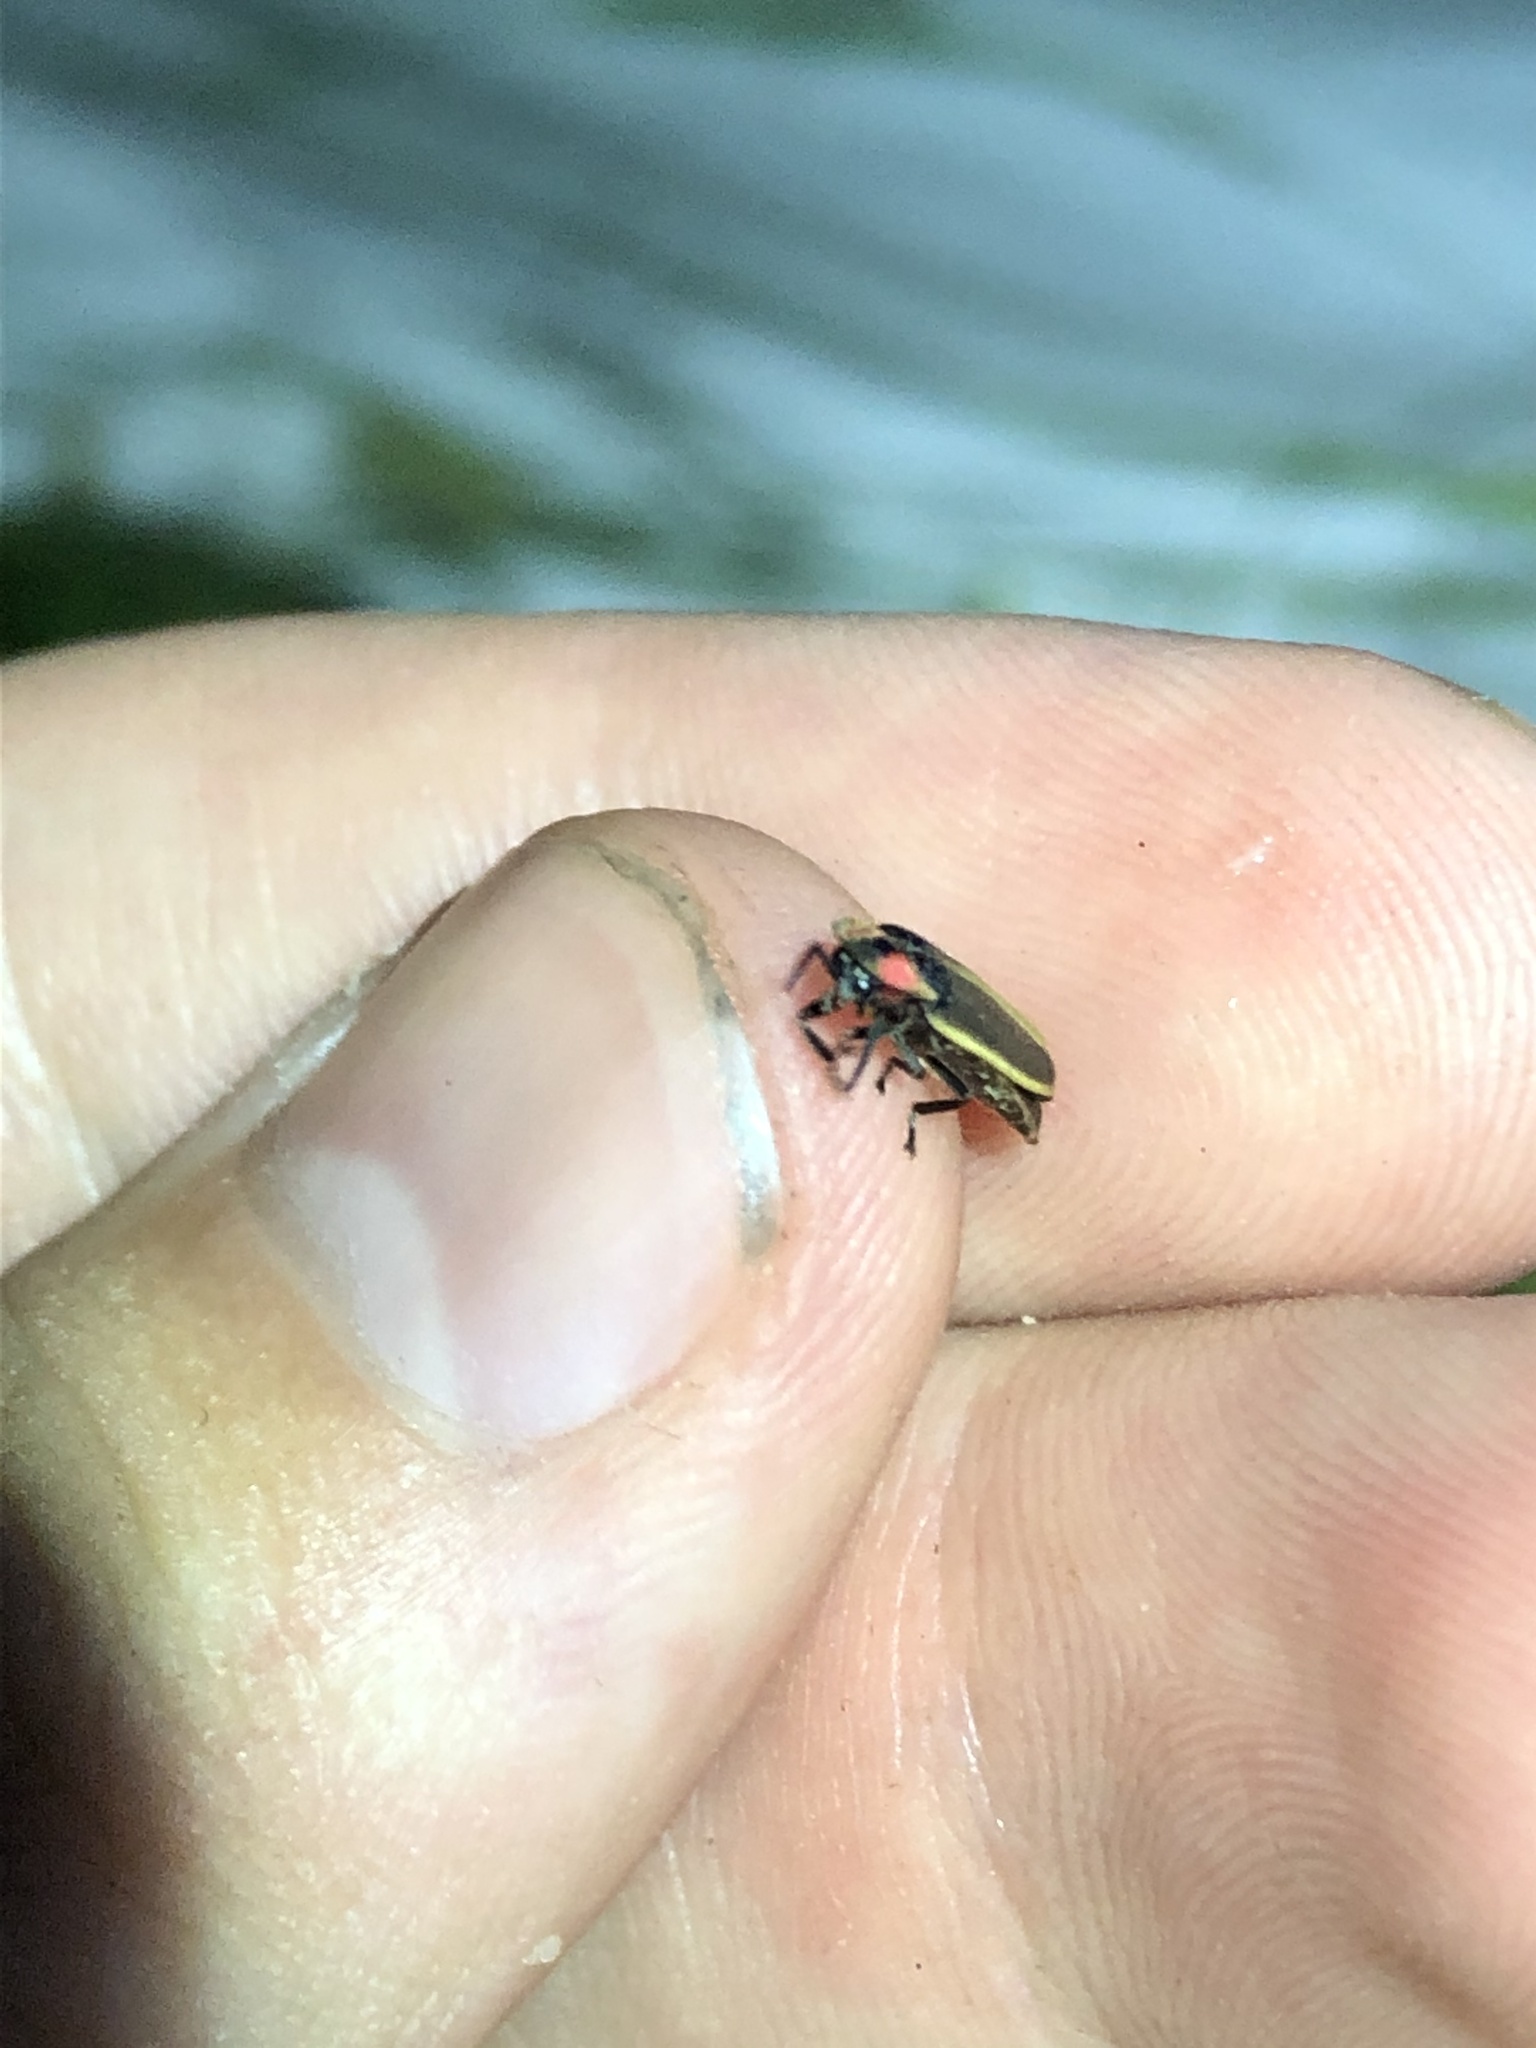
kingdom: Animalia
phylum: Arthropoda
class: Insecta
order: Coleoptera
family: Lampyridae
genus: Photinus
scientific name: Photinus knulli
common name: Fall southwest firefly
